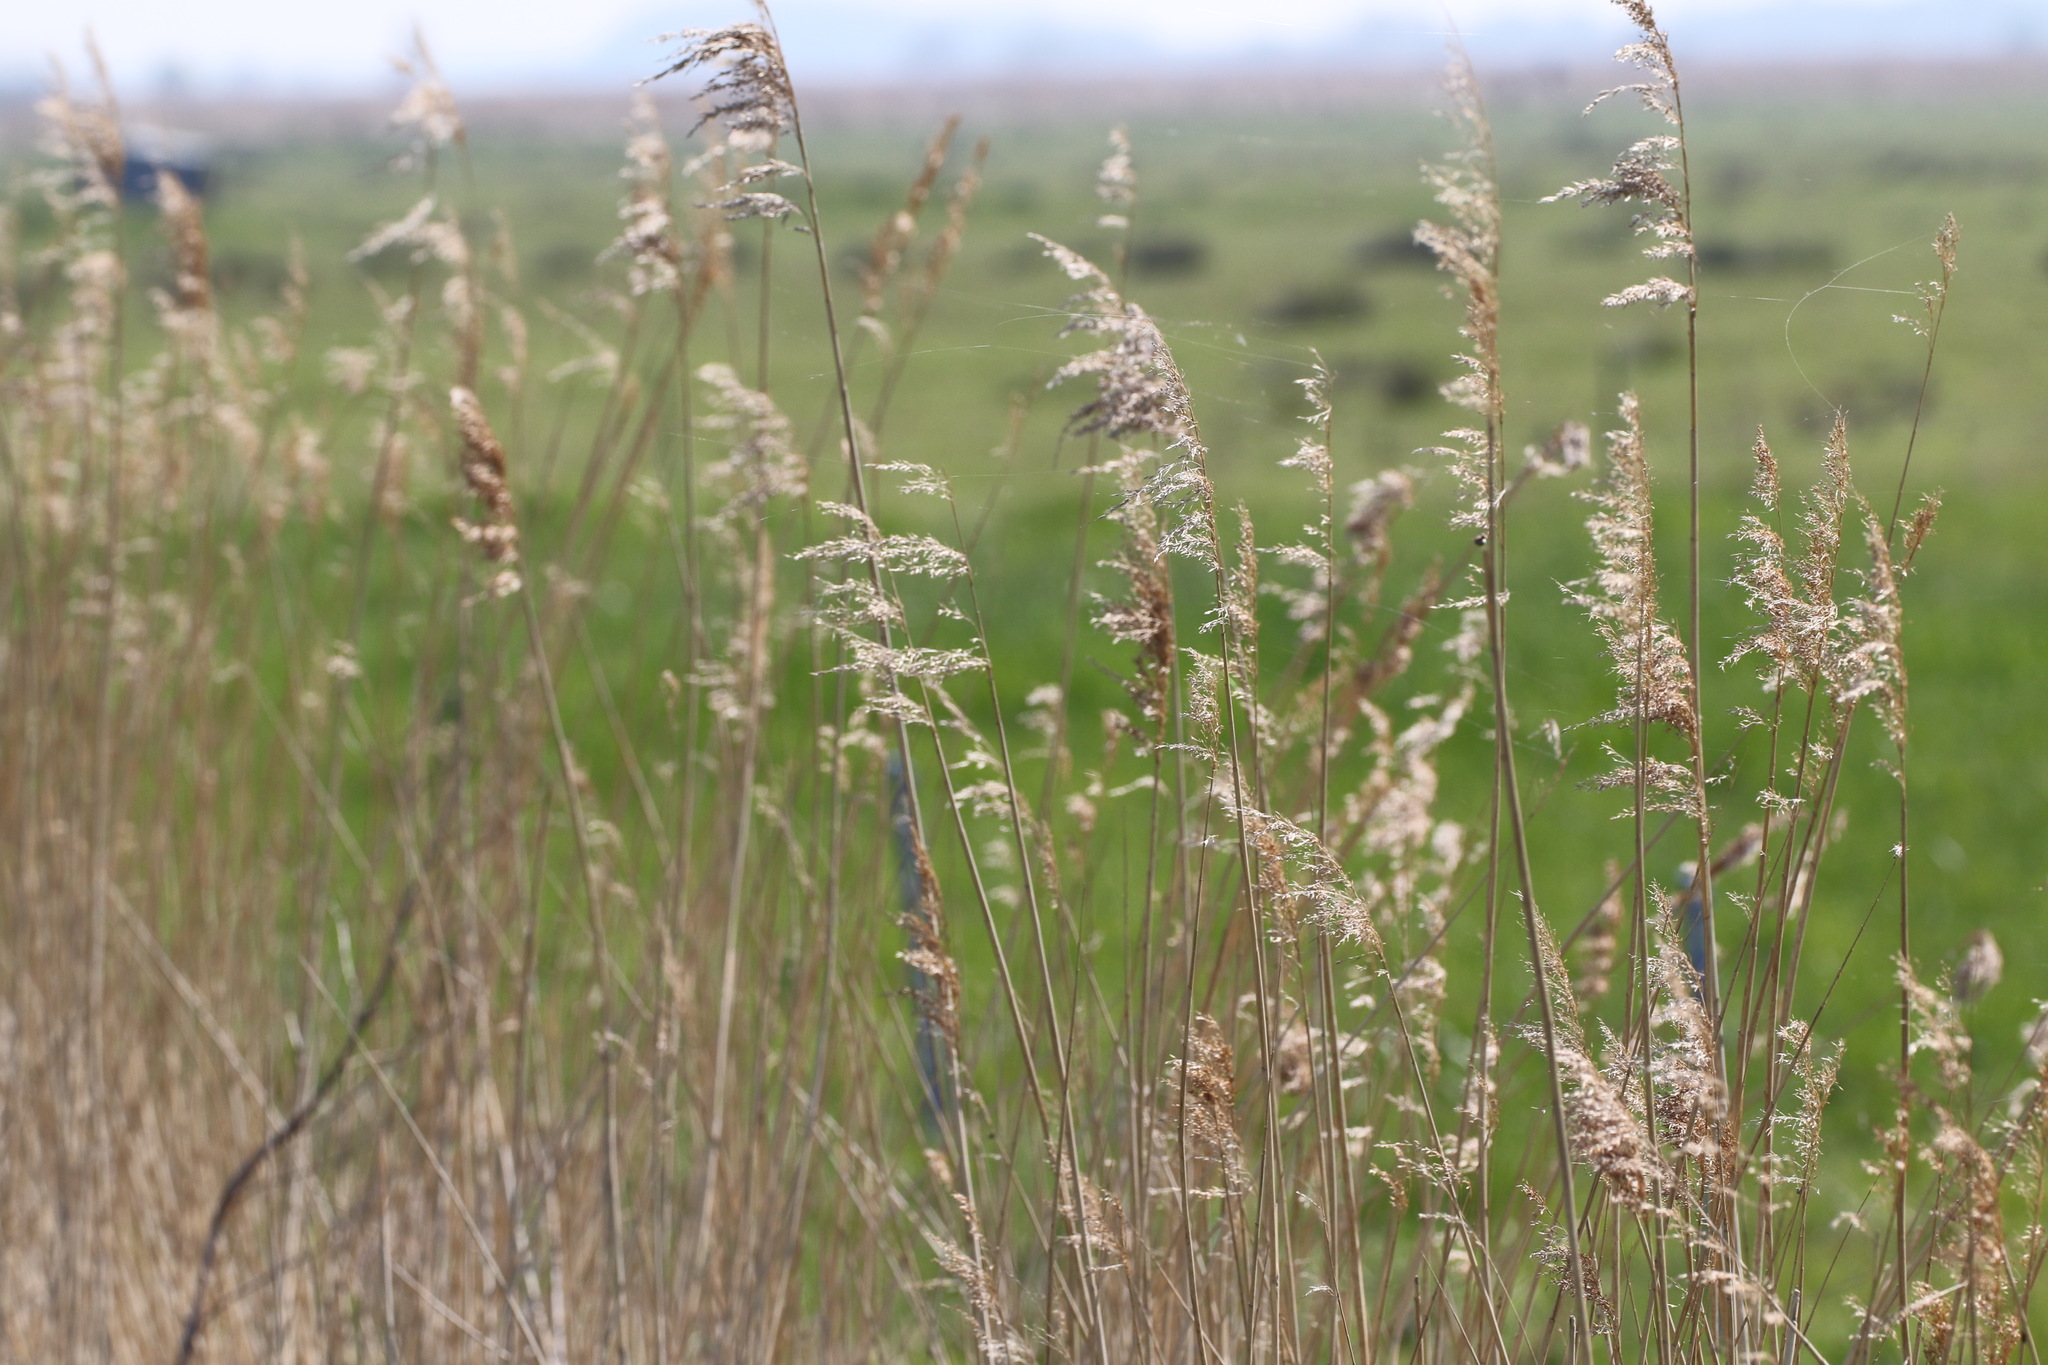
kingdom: Plantae
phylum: Tracheophyta
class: Liliopsida
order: Poales
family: Poaceae
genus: Phragmites
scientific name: Phragmites australis
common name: Common reed
